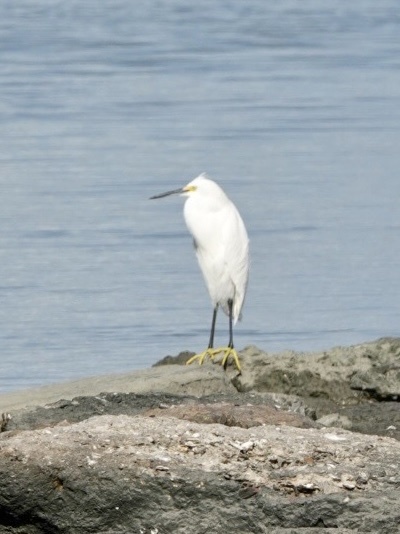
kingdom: Animalia
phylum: Chordata
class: Aves
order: Pelecaniformes
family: Ardeidae
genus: Egretta
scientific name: Egretta thula
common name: Snowy egret
